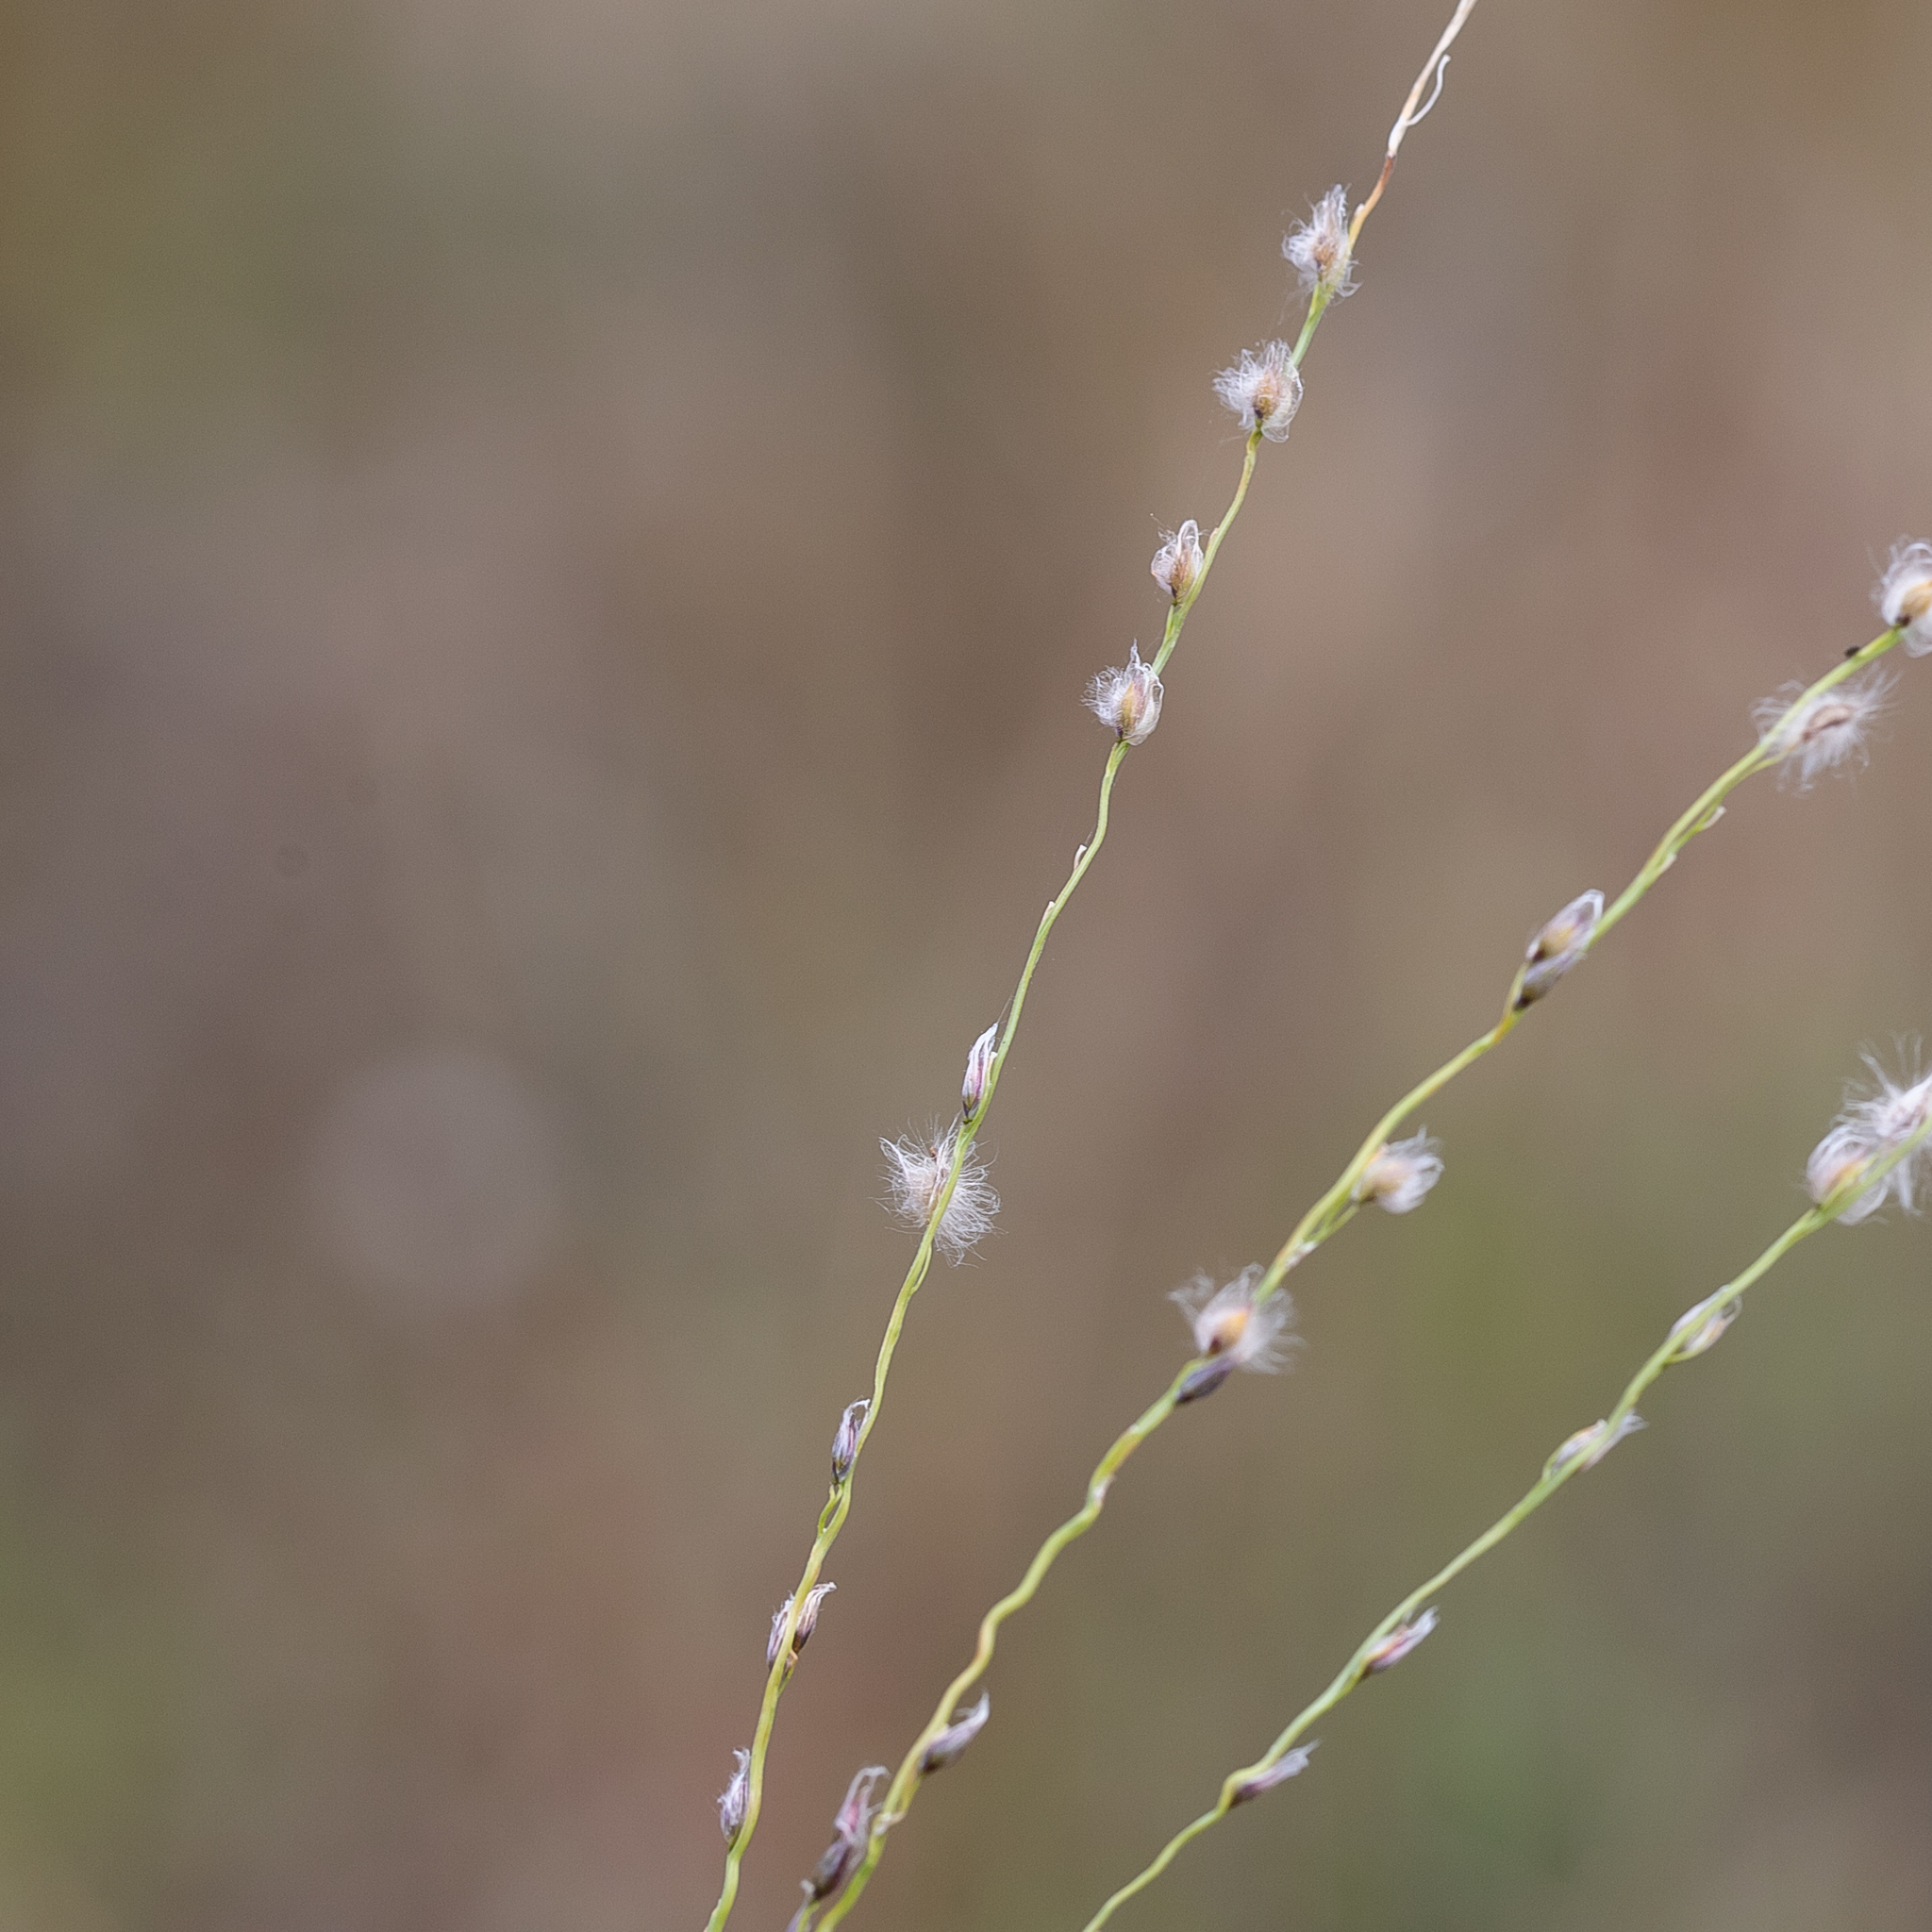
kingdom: Plantae
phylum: Tracheophyta
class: Liliopsida
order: Poales
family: Poaceae
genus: Digitaria
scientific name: Digitaria brownii
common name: Cotton grass
